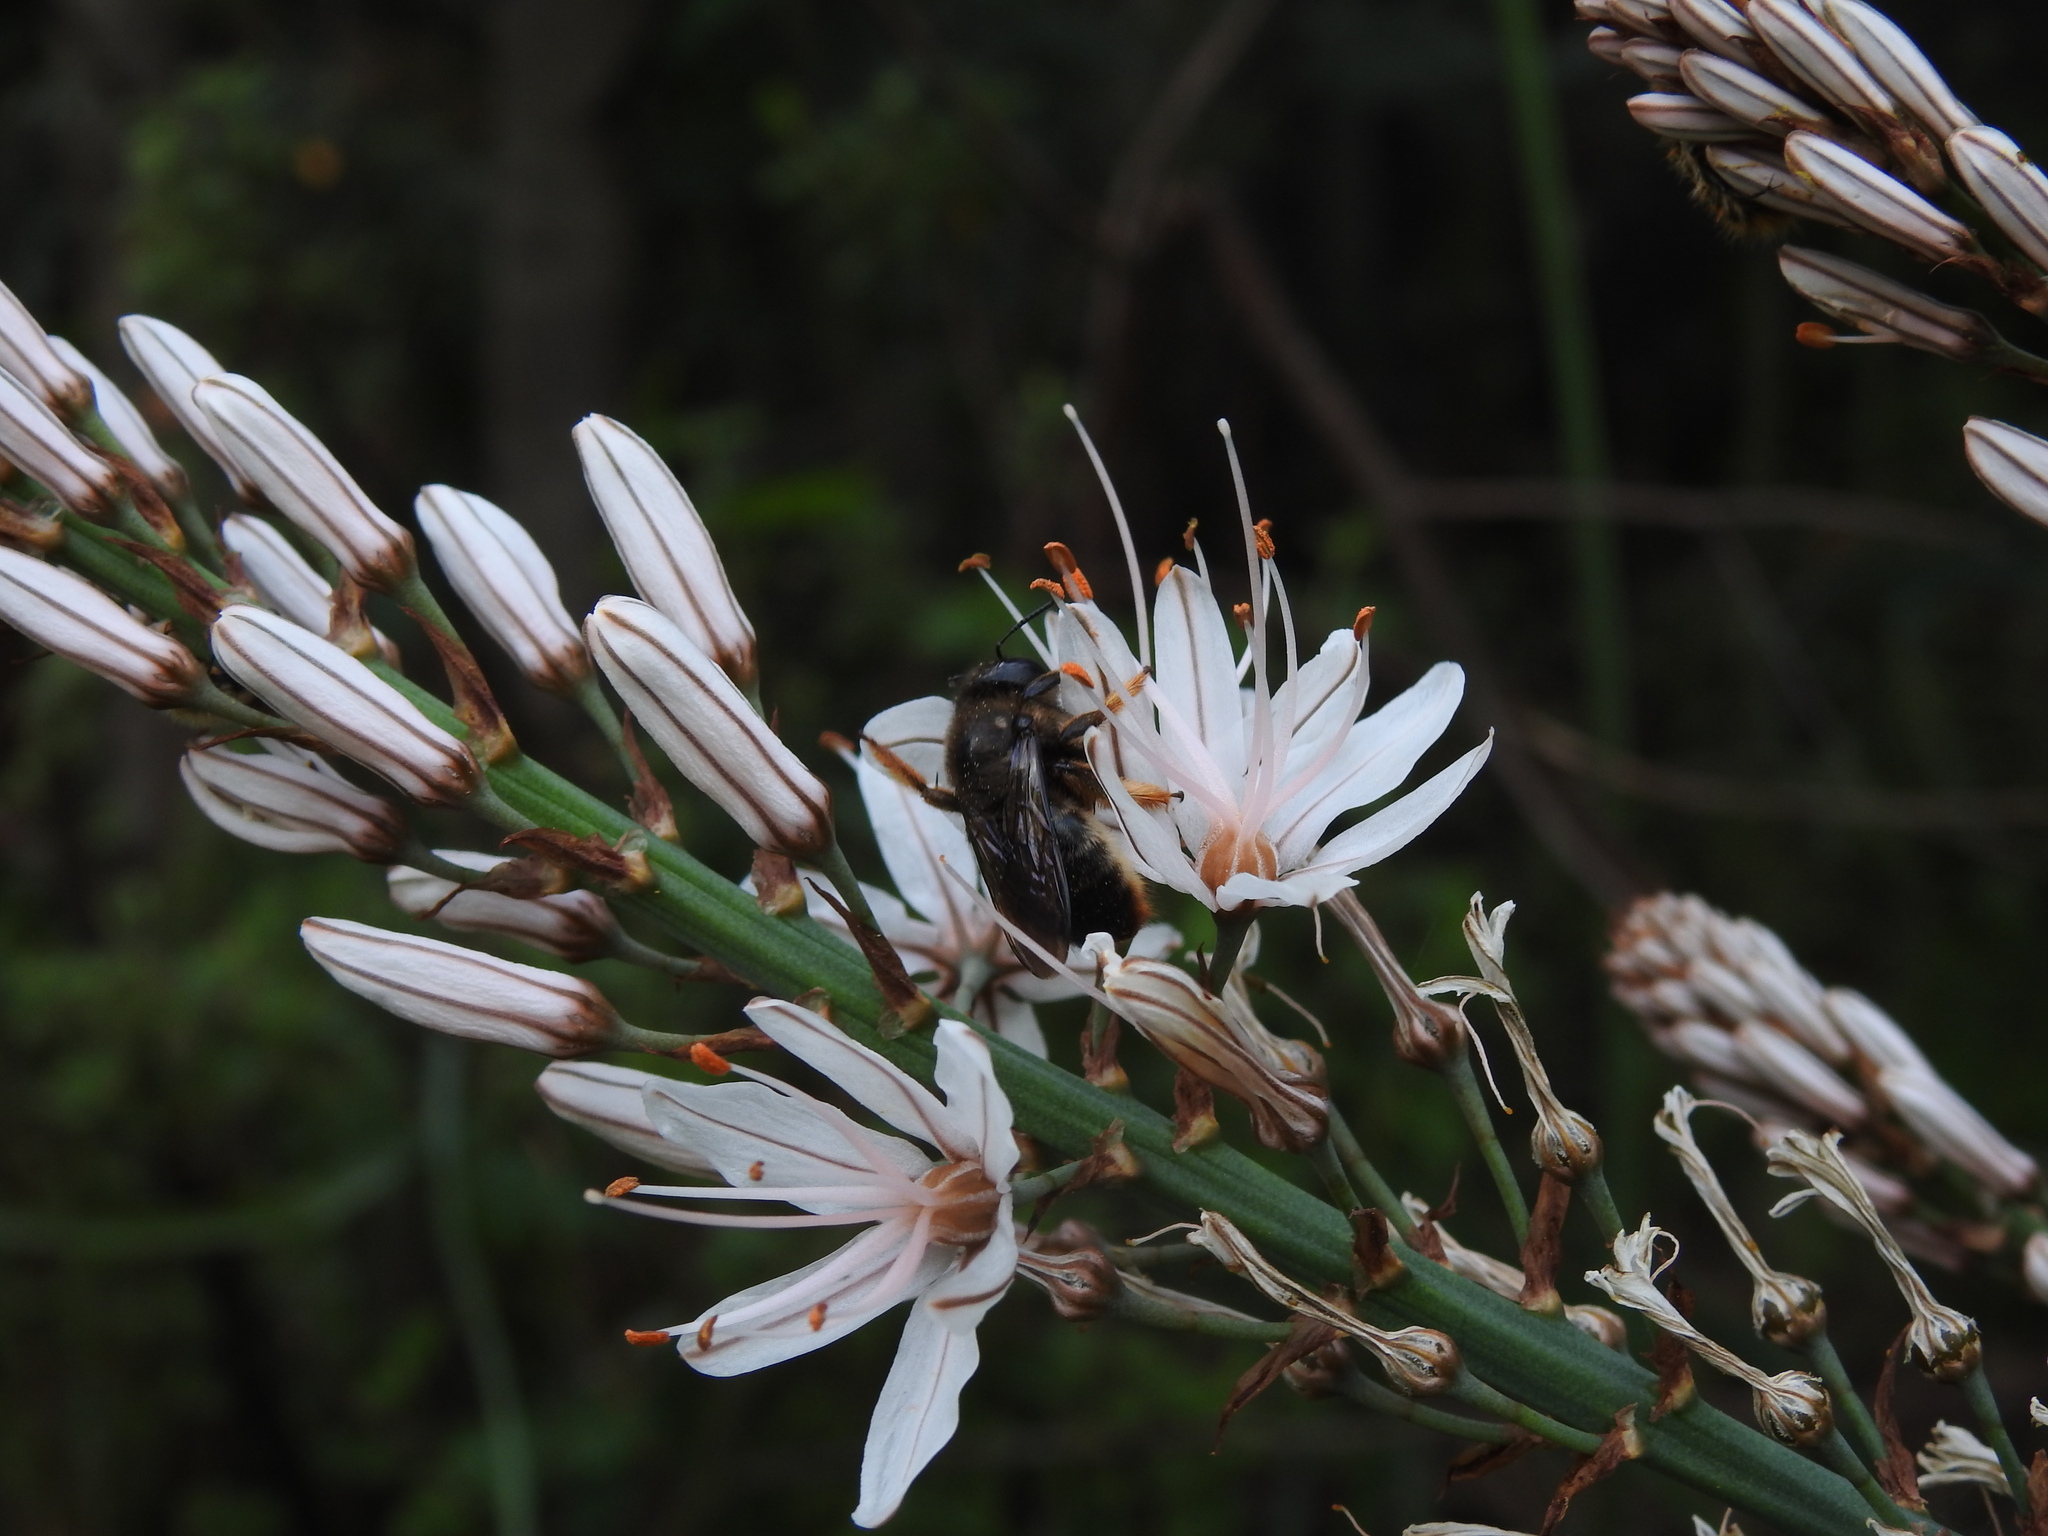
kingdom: Animalia
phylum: Arthropoda
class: Insecta
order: Hymenoptera
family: Apidae
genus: Xylocopa
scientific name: Xylocopa cantabrita
